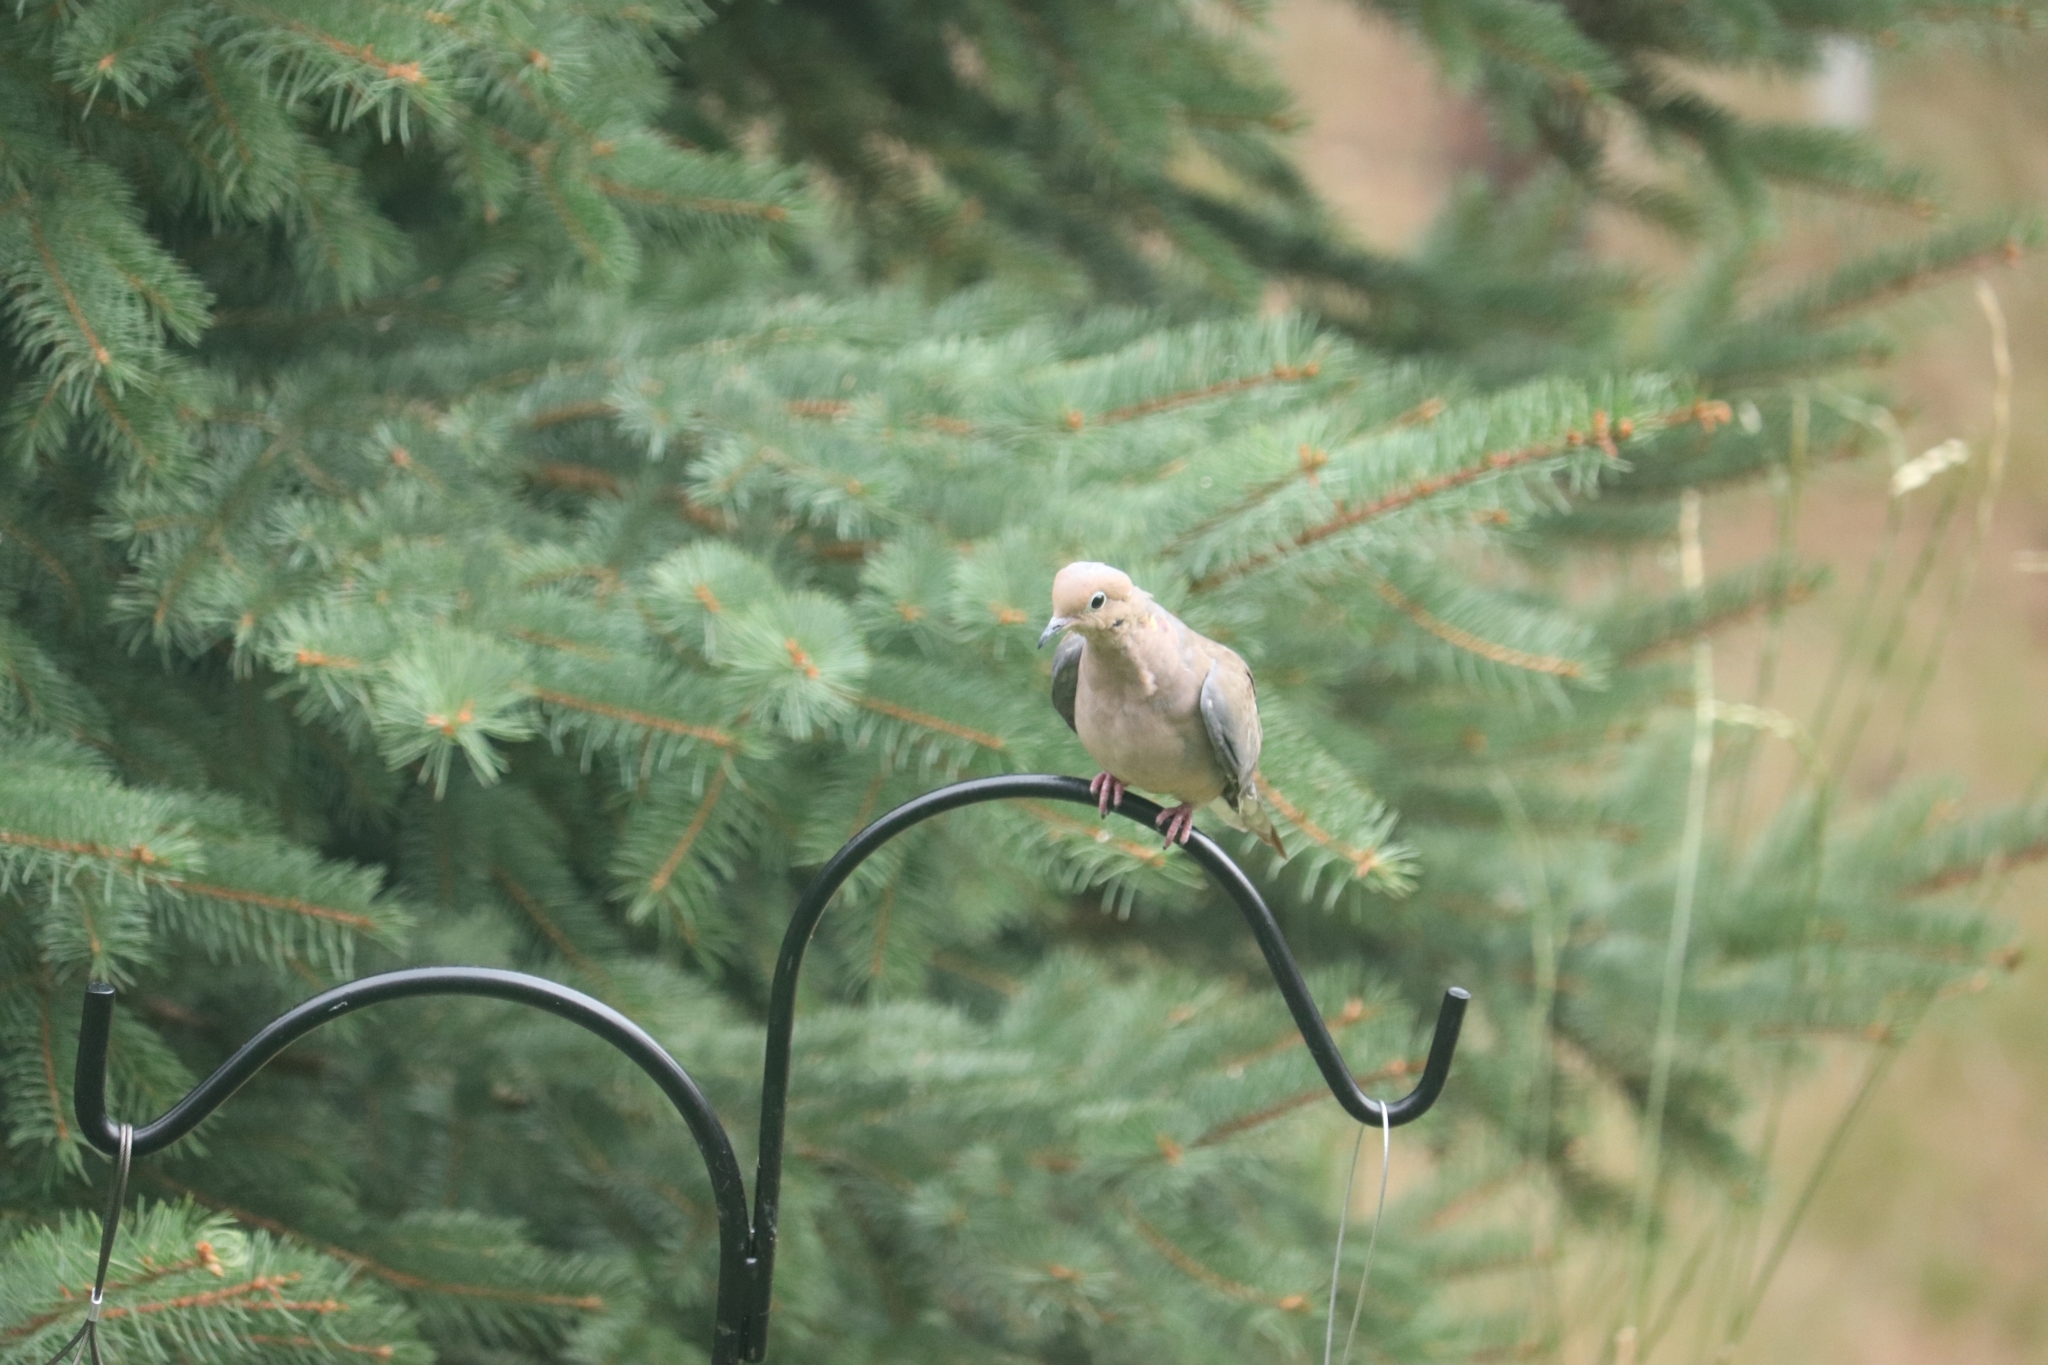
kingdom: Animalia
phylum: Chordata
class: Aves
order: Columbiformes
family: Columbidae
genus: Zenaida
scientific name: Zenaida macroura
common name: Mourning dove
